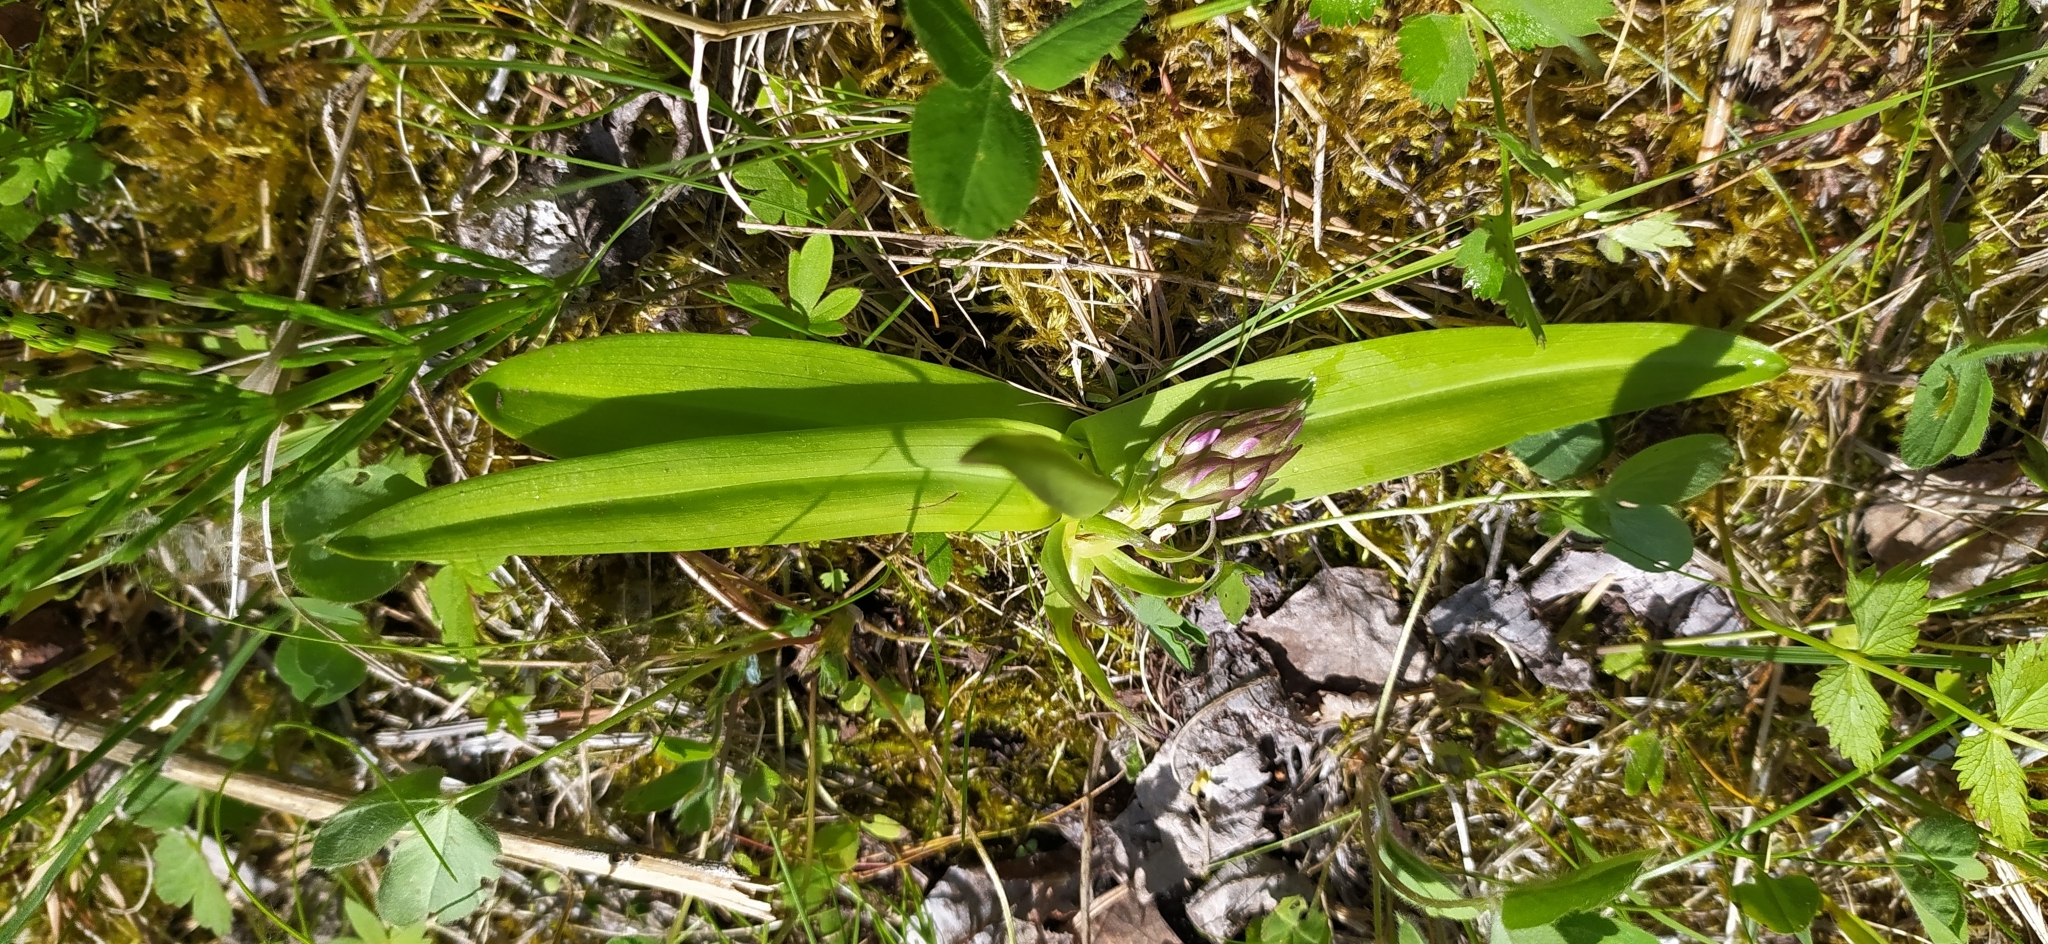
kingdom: Plantae
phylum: Tracheophyta
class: Liliopsida
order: Asparagales
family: Orchidaceae
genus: Dactylorhiza
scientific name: Dactylorhiza incarnata
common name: Early marsh-orchid
